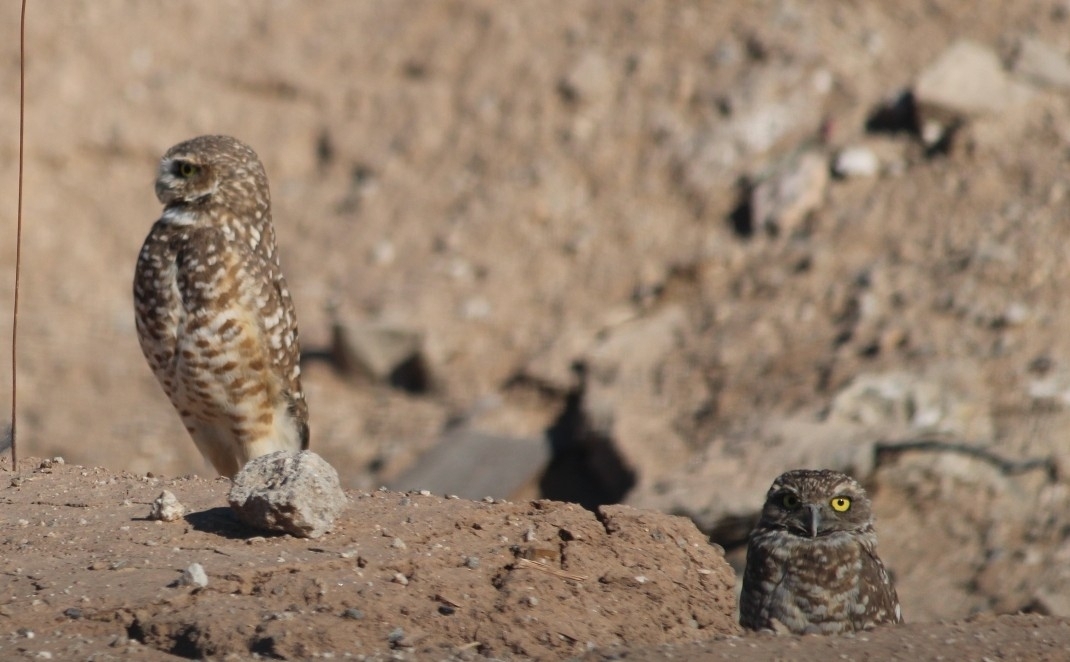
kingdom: Animalia
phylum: Chordata
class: Aves
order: Strigiformes
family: Strigidae
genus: Athene
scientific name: Athene cunicularia
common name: Burrowing owl
